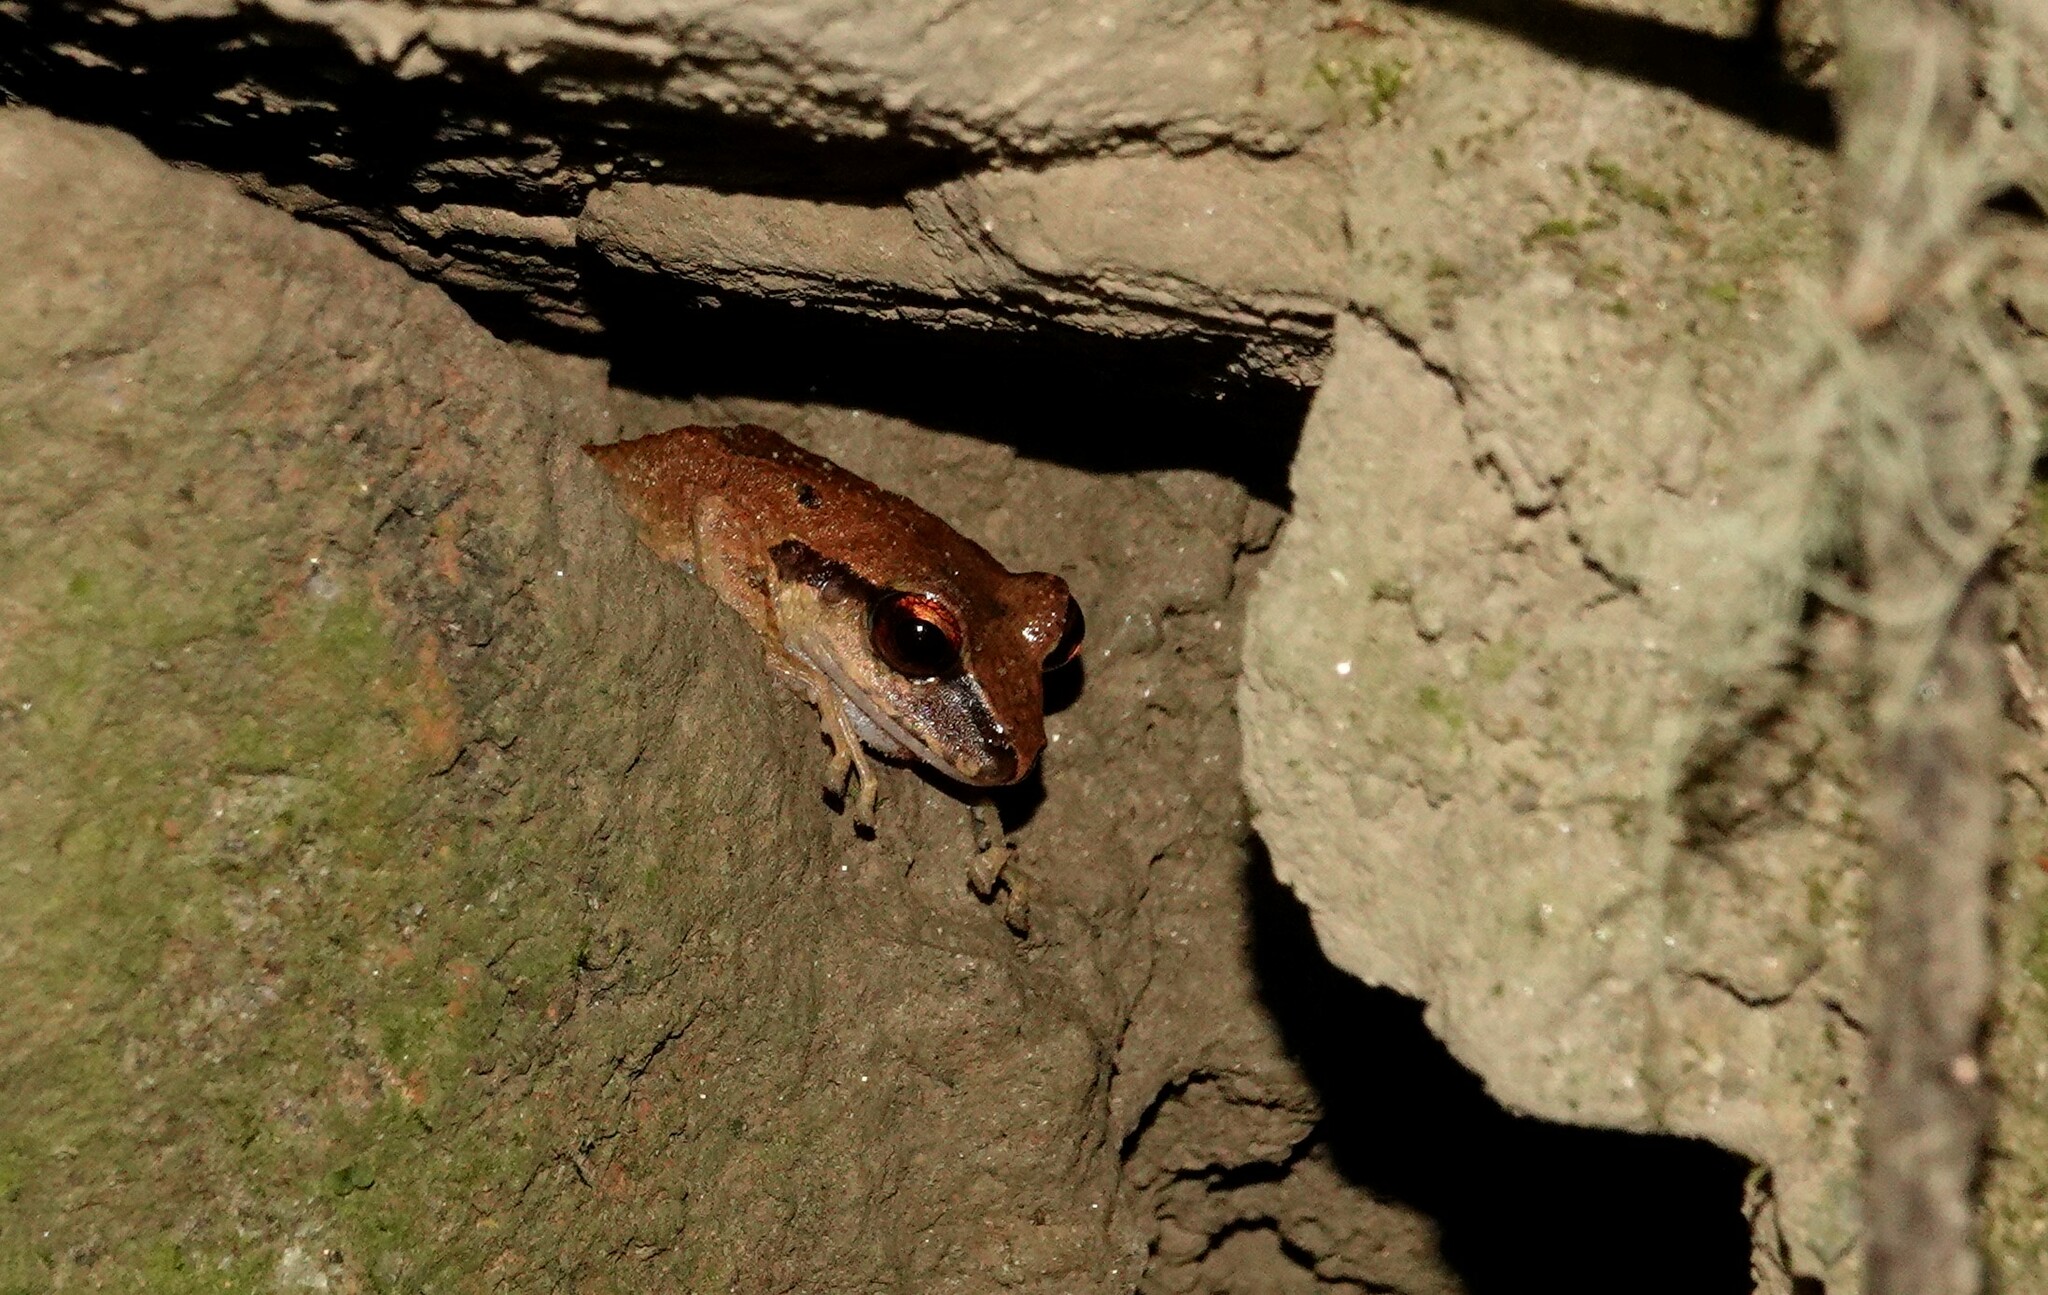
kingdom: Animalia
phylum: Chordata
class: Amphibia
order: Anura
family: Craugastoridae
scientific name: Craugastoridae
